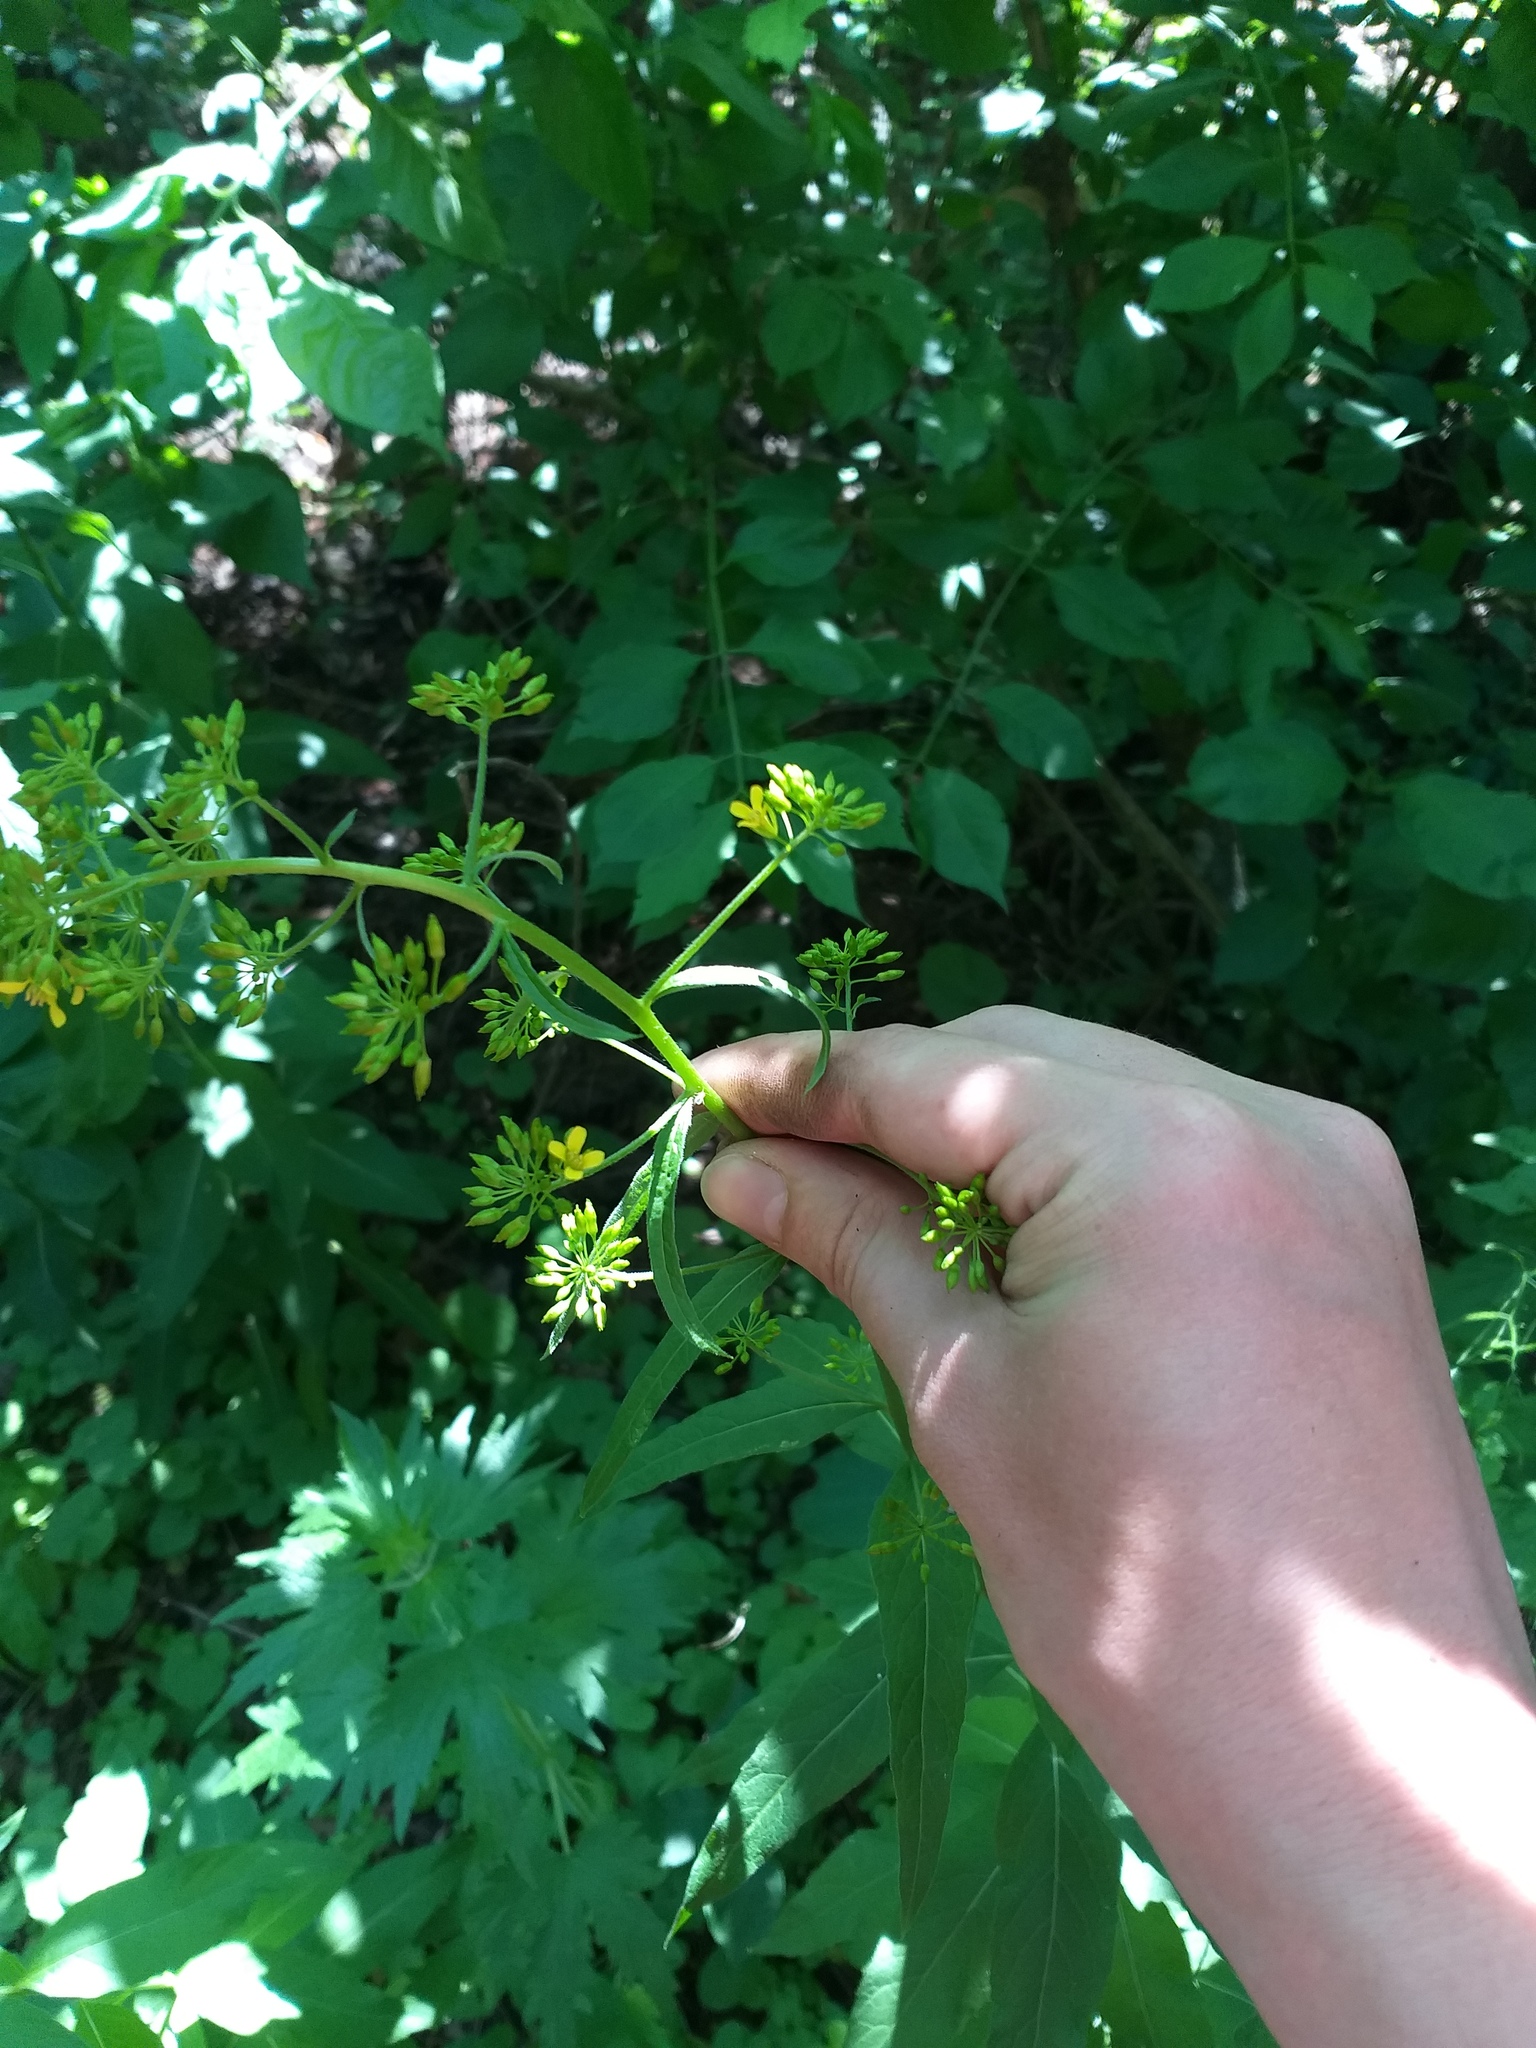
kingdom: Plantae
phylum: Tracheophyta
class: Magnoliopsida
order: Brassicales
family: Brassicaceae
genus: Sisymbrium
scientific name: Sisymbrium strictissimum
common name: Perennial rocket
